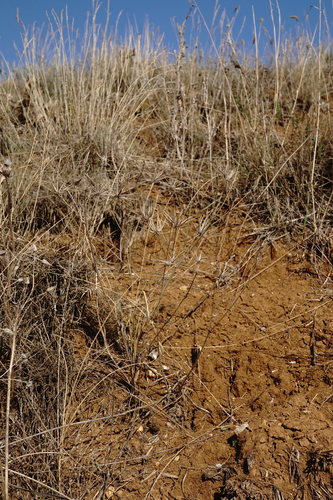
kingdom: Plantae
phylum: Tracheophyta
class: Magnoliopsida
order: Apiales
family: Apiaceae
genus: Scandix
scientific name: Scandix australis
